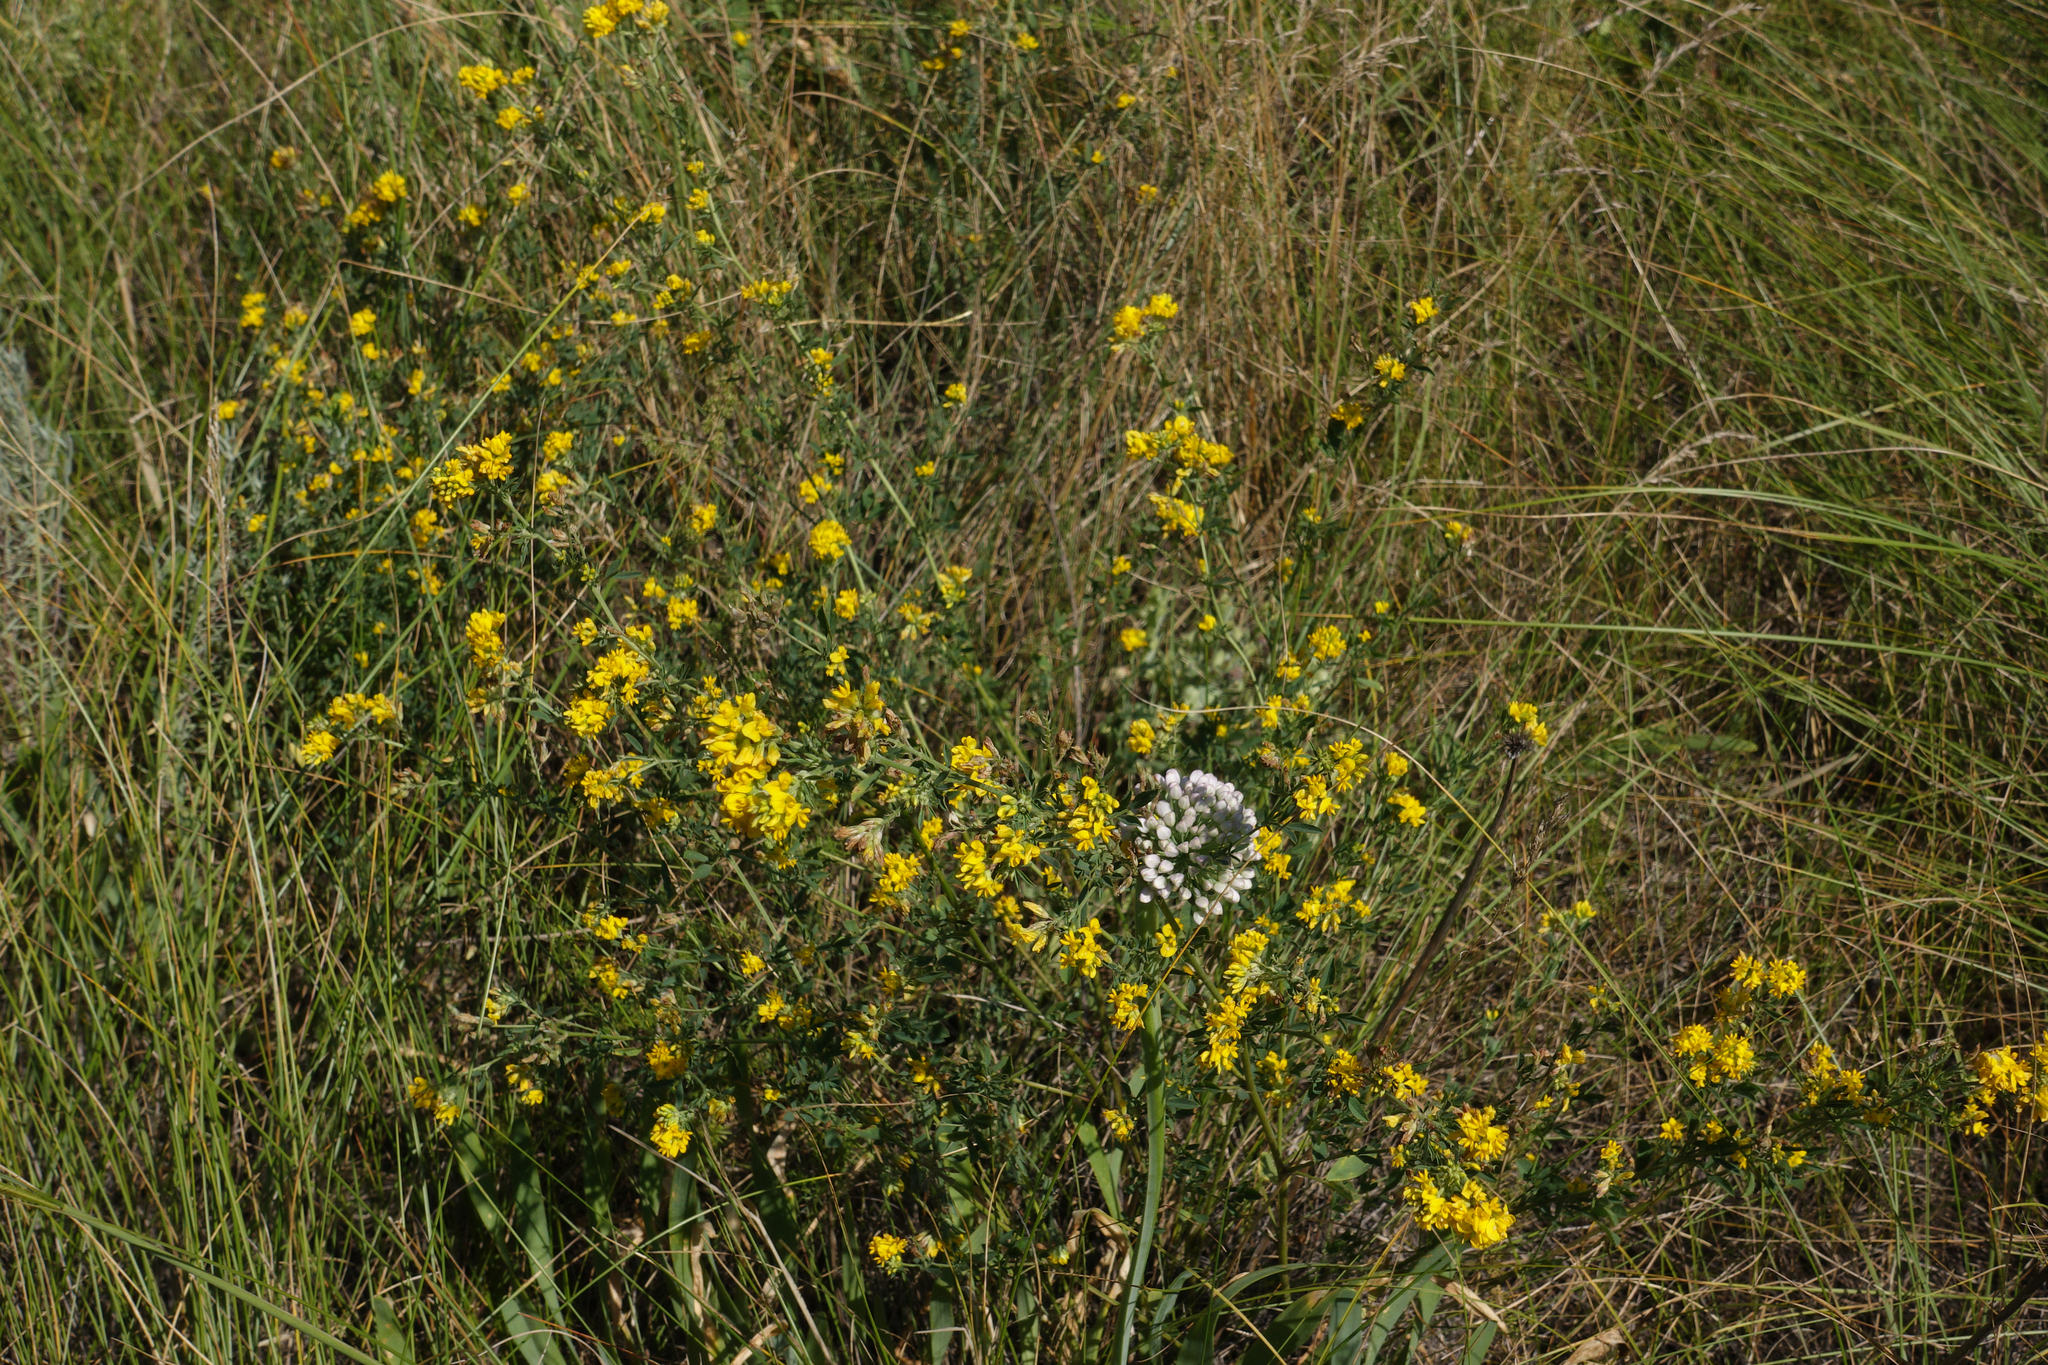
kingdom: Plantae
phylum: Tracheophyta
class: Magnoliopsida
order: Fabales
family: Fabaceae
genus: Medicago
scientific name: Medicago falcata
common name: Sickle medick
